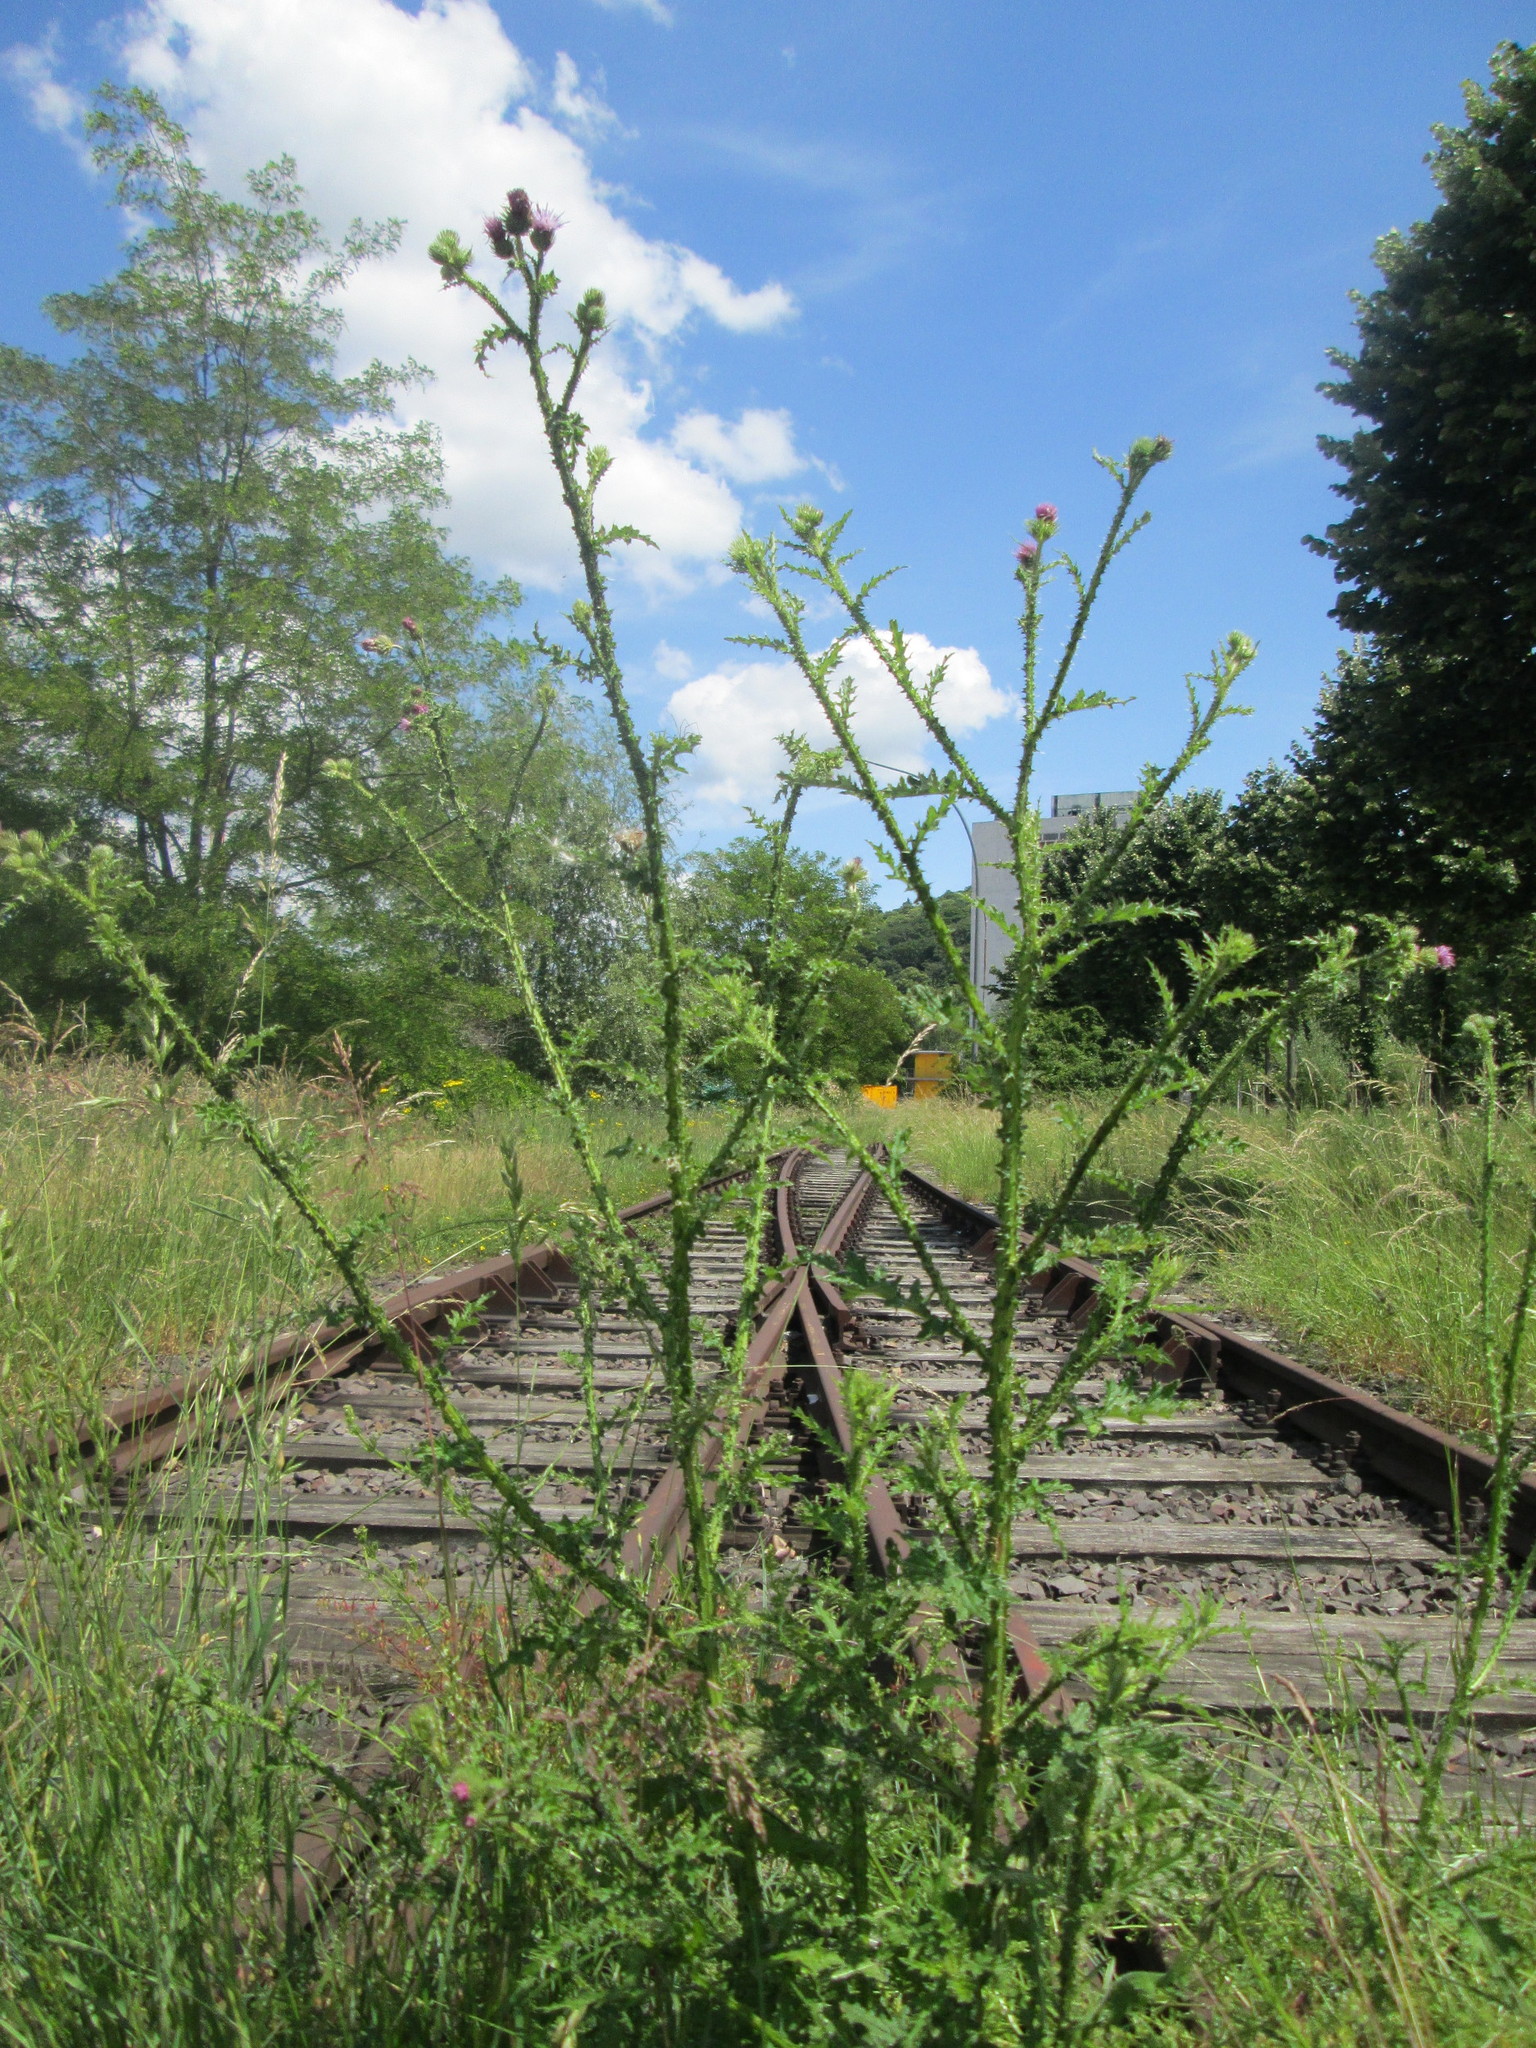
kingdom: Plantae
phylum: Tracheophyta
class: Magnoliopsida
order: Asterales
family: Asteraceae
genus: Carduus
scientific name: Carduus acanthoides
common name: Plumeless thistle
